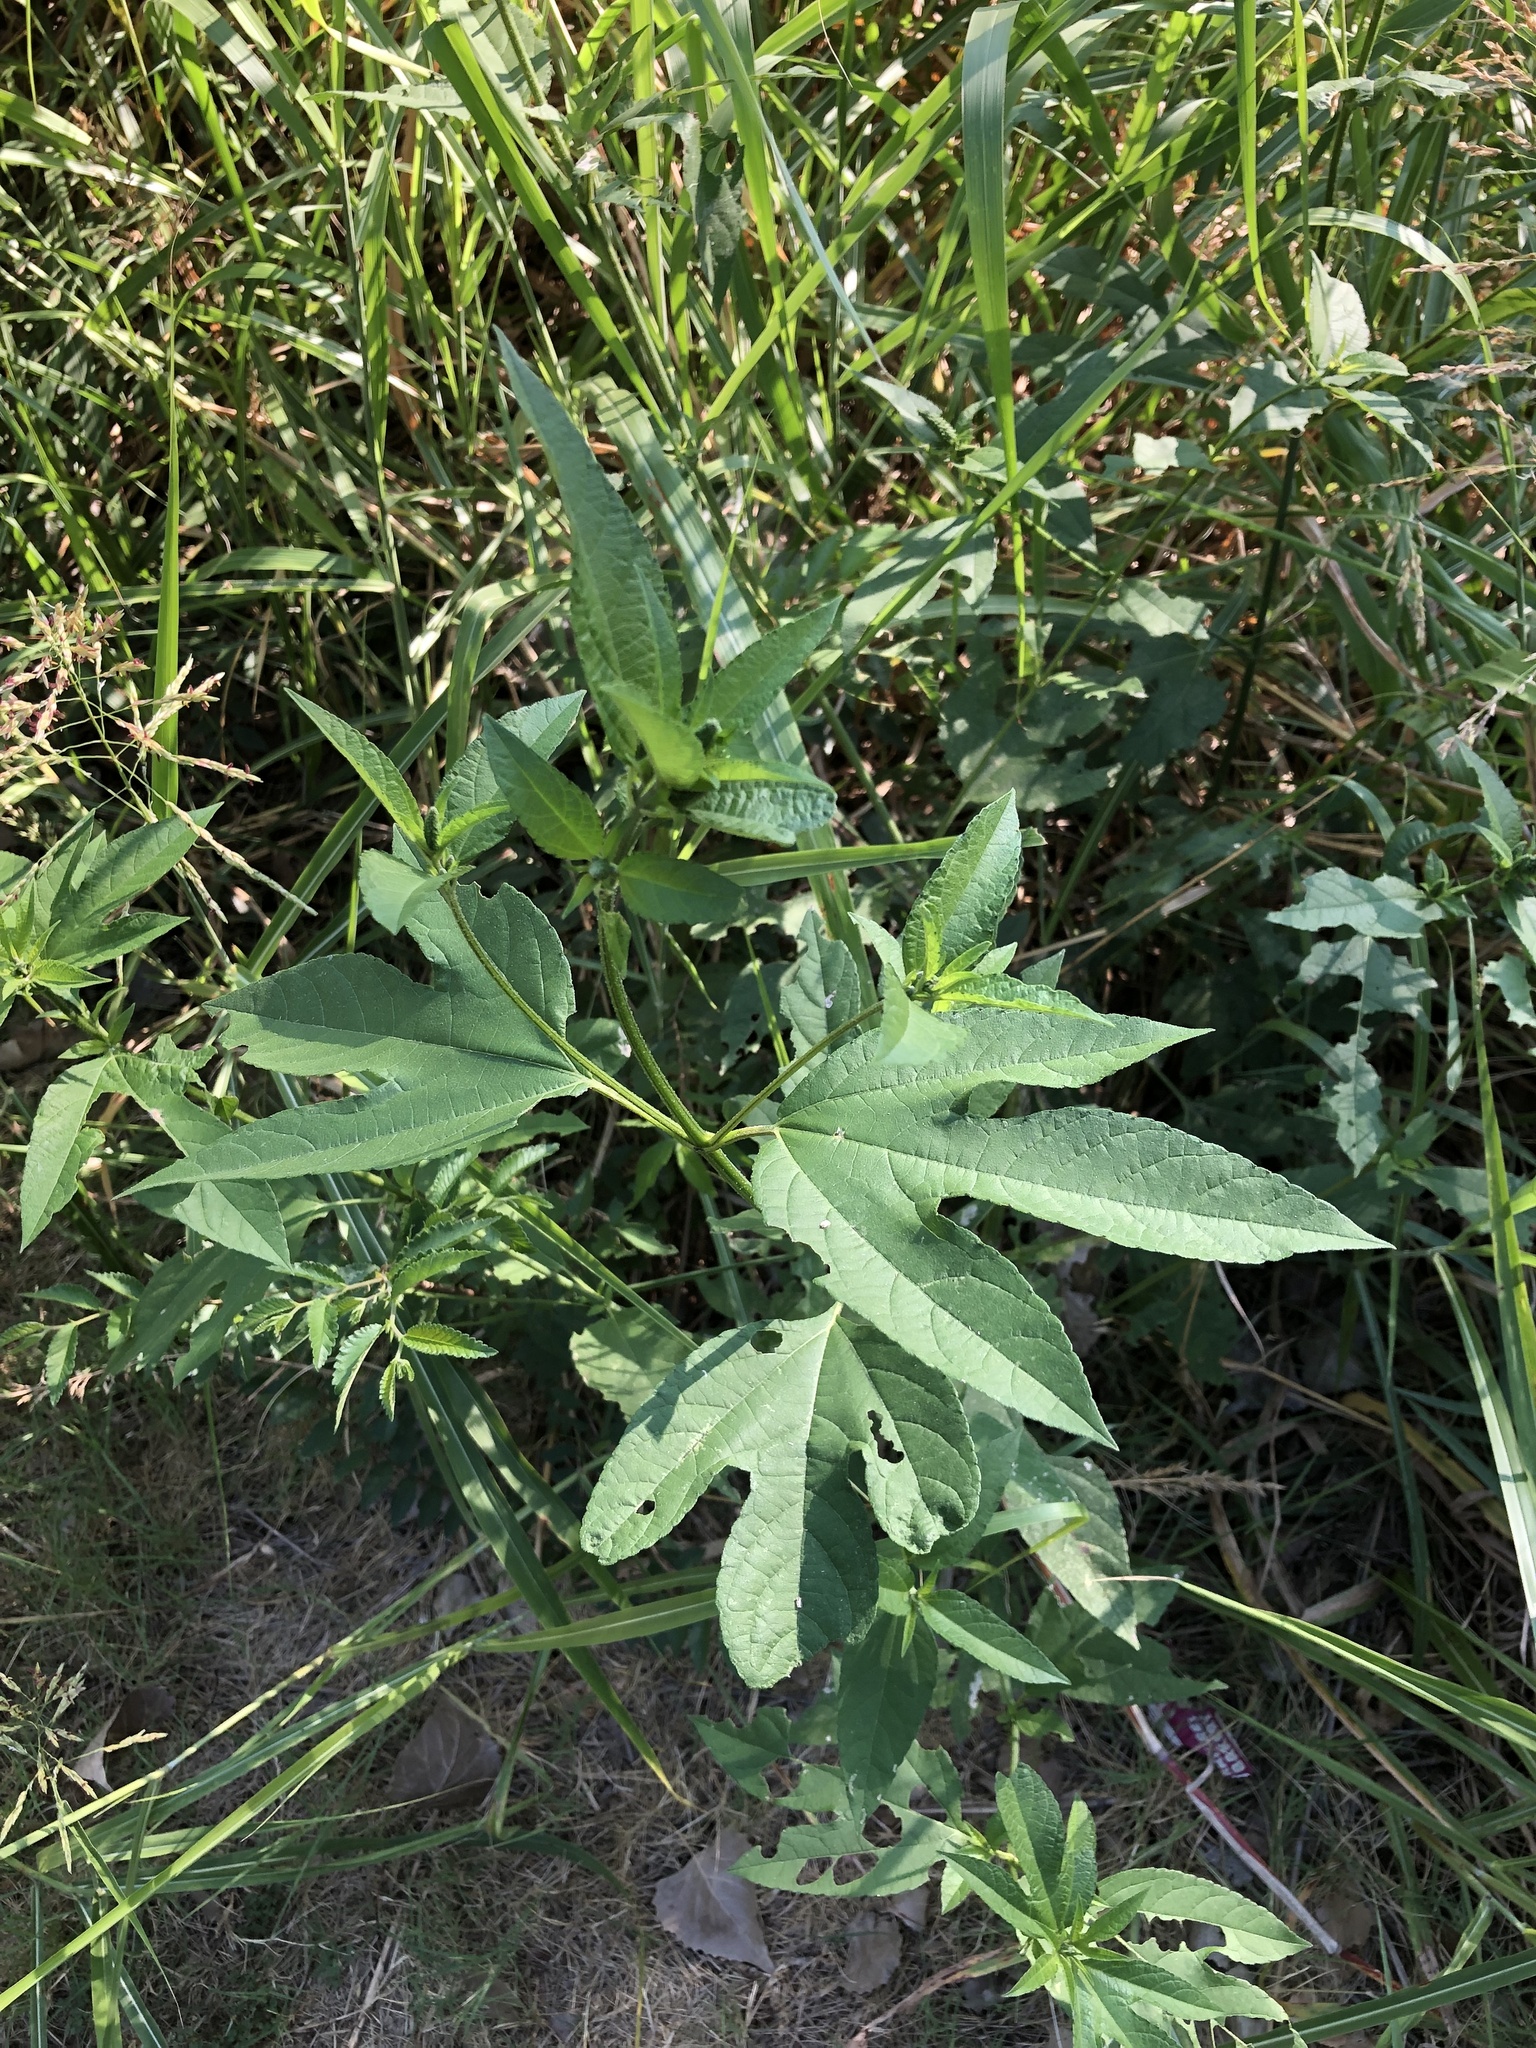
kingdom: Plantae
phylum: Tracheophyta
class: Magnoliopsida
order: Asterales
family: Asteraceae
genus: Ambrosia
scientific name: Ambrosia trifida
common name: Giant ragweed
